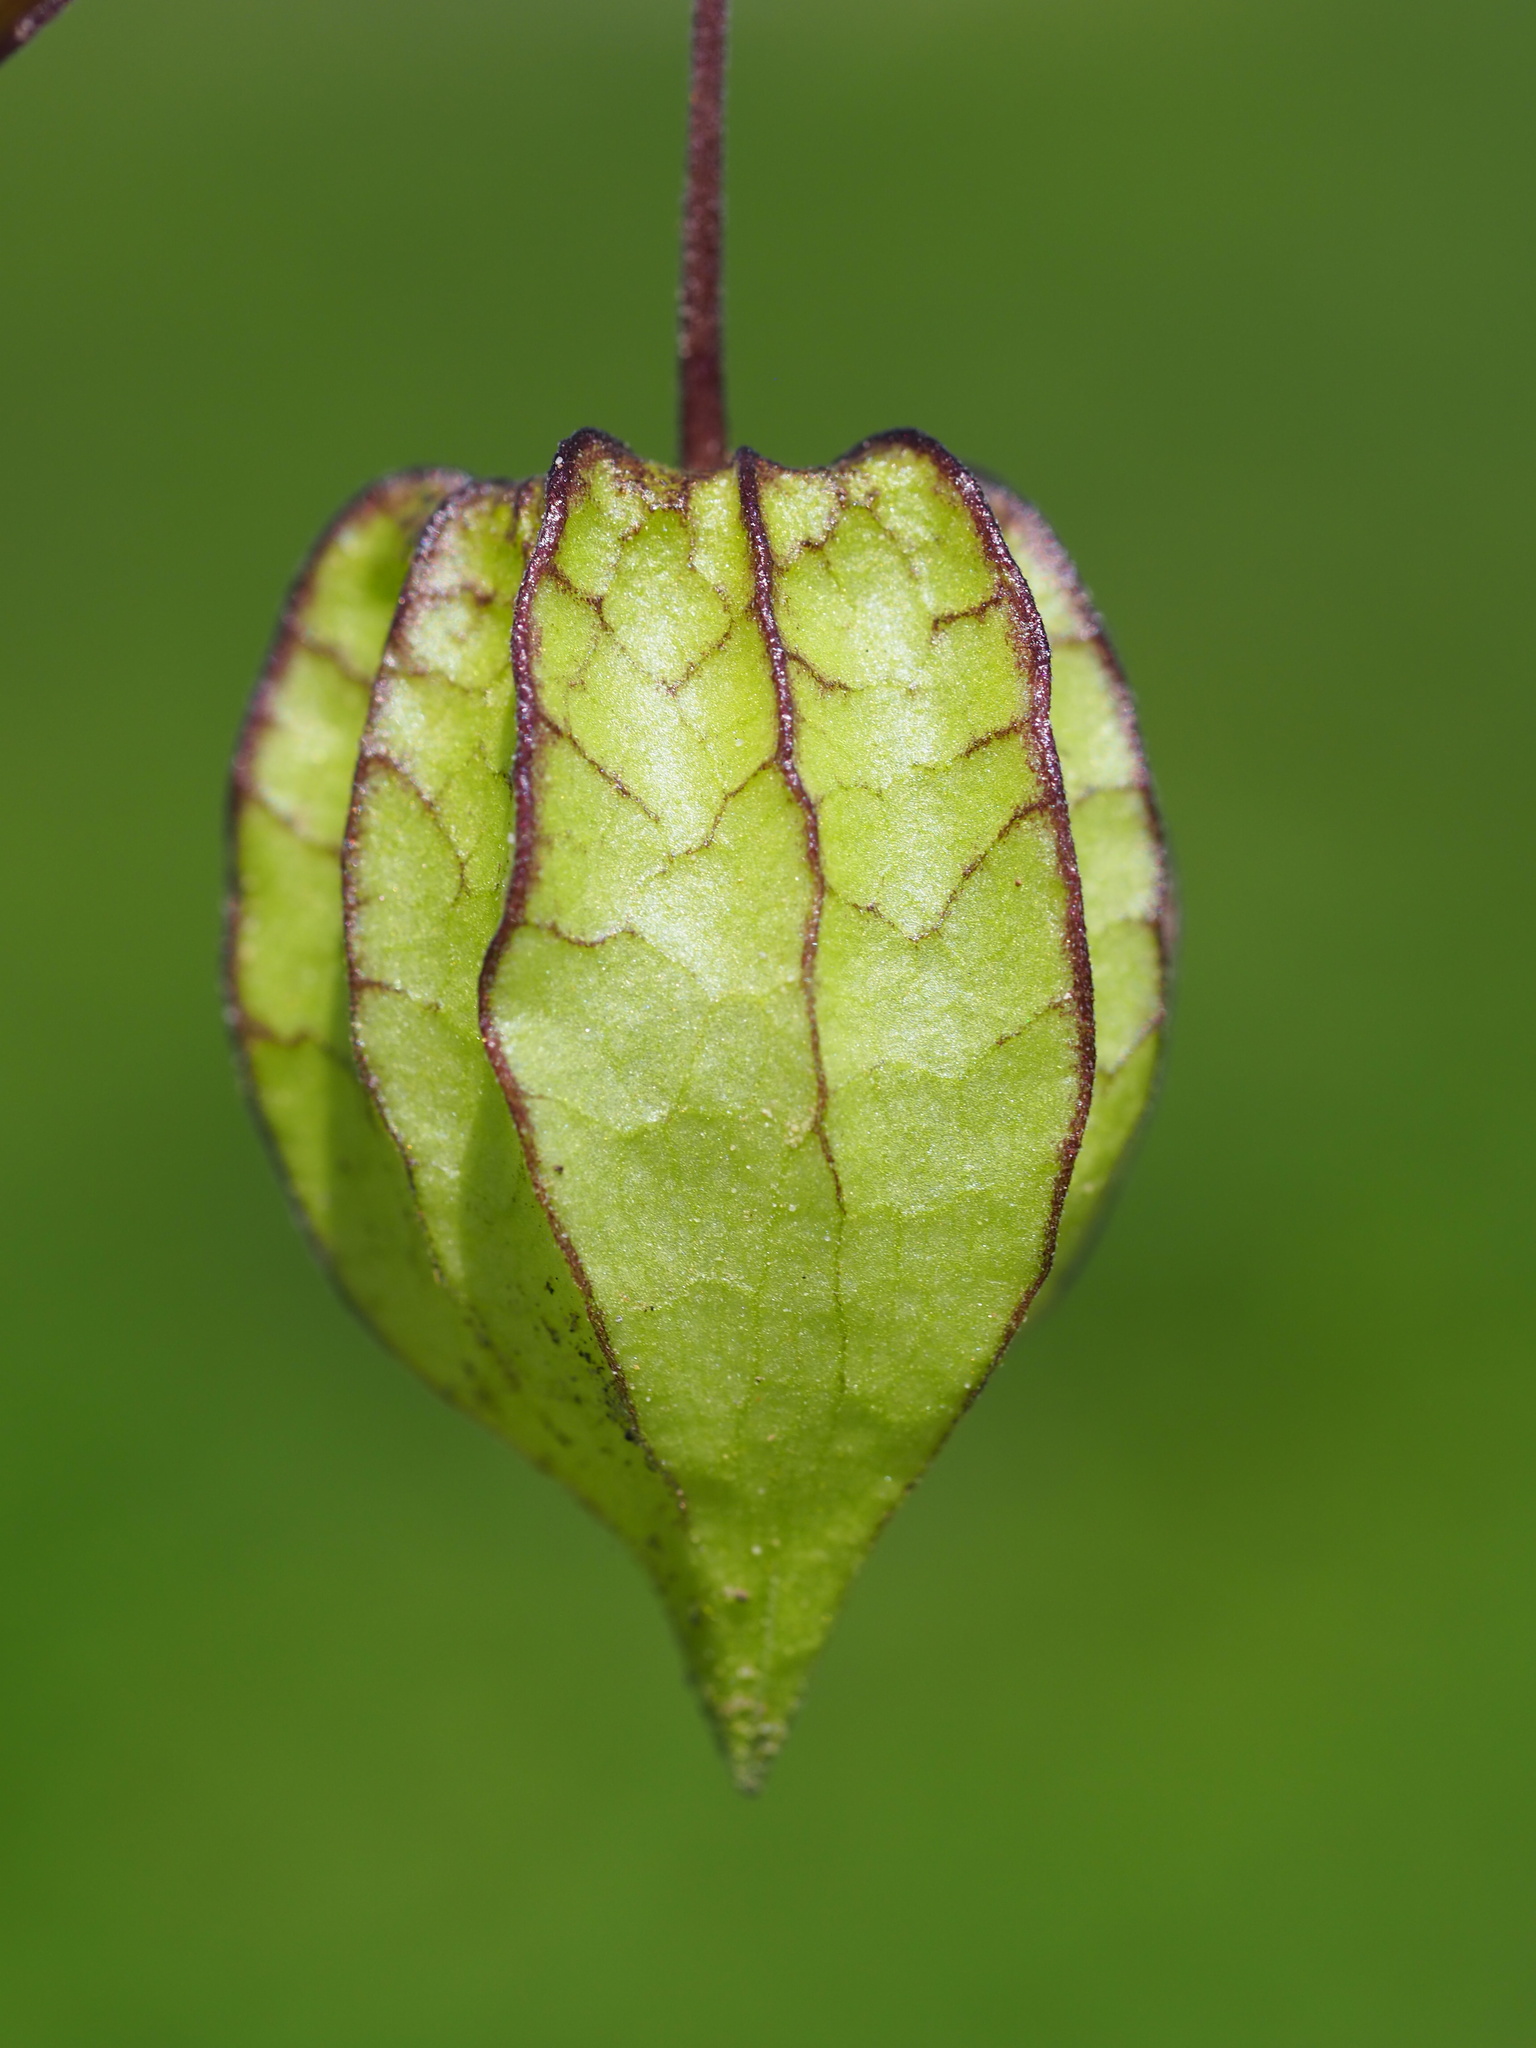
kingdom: Plantae
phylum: Tracheophyta
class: Magnoliopsida
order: Solanales
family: Solanaceae
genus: Physalis
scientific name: Physalis angulata
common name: Angular winter-cherry
